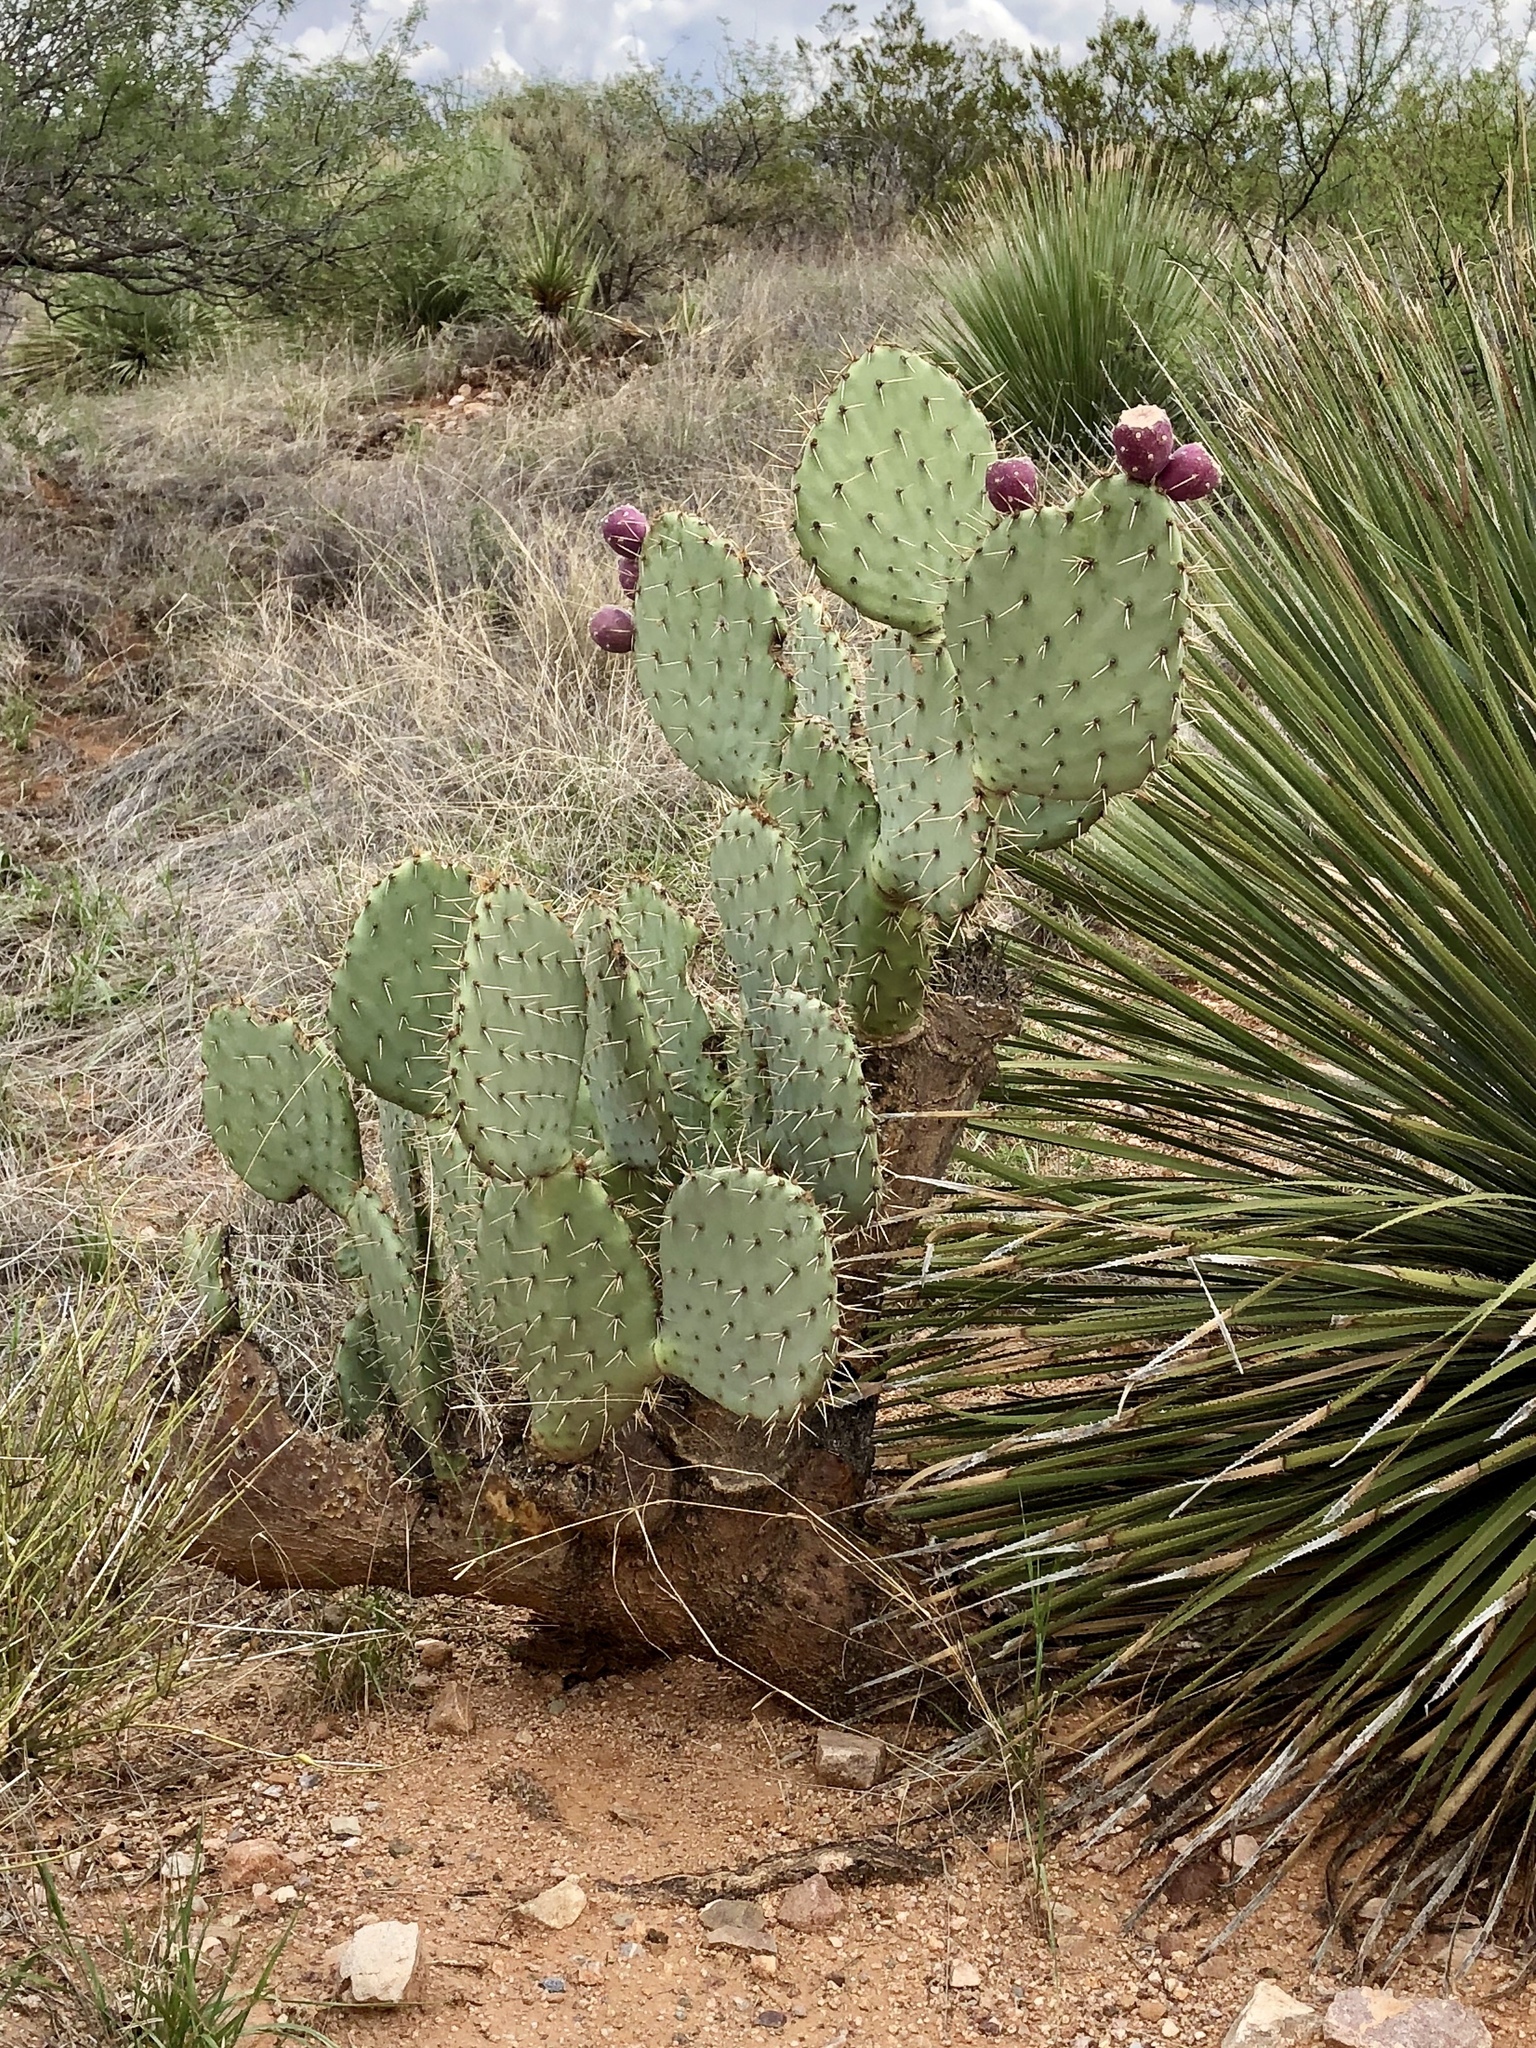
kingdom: Plantae
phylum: Tracheophyta
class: Magnoliopsida
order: Caryophyllales
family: Cactaceae
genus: Opuntia
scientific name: Opuntia engelmannii
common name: Cactus-apple
